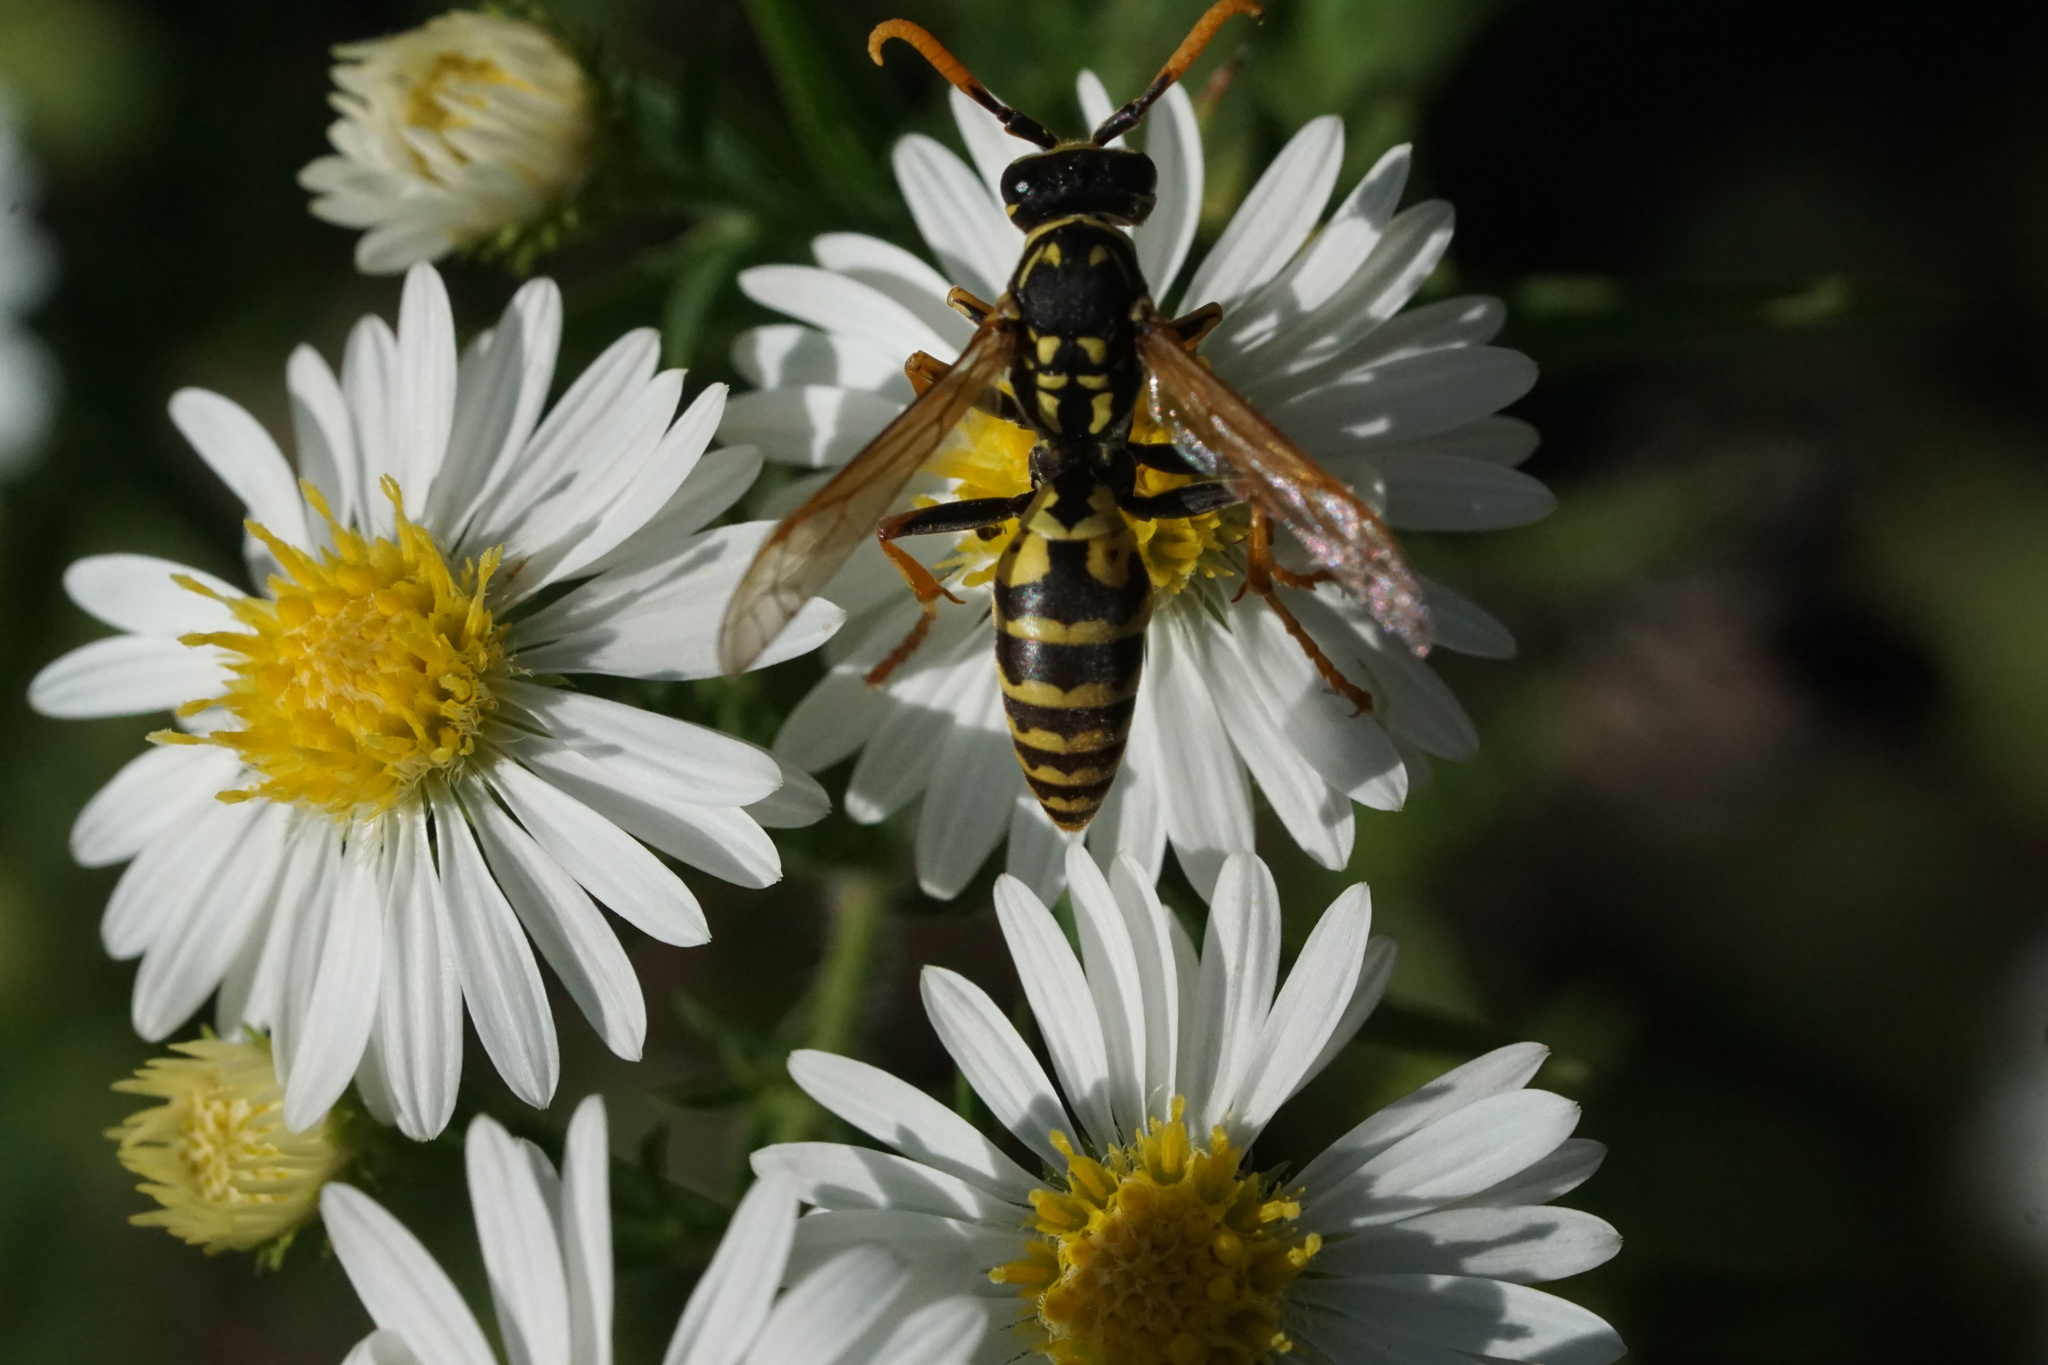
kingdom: Animalia
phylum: Arthropoda
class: Insecta
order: Hymenoptera
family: Eumenidae
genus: Polistes
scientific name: Polistes dominula
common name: Paper wasp
